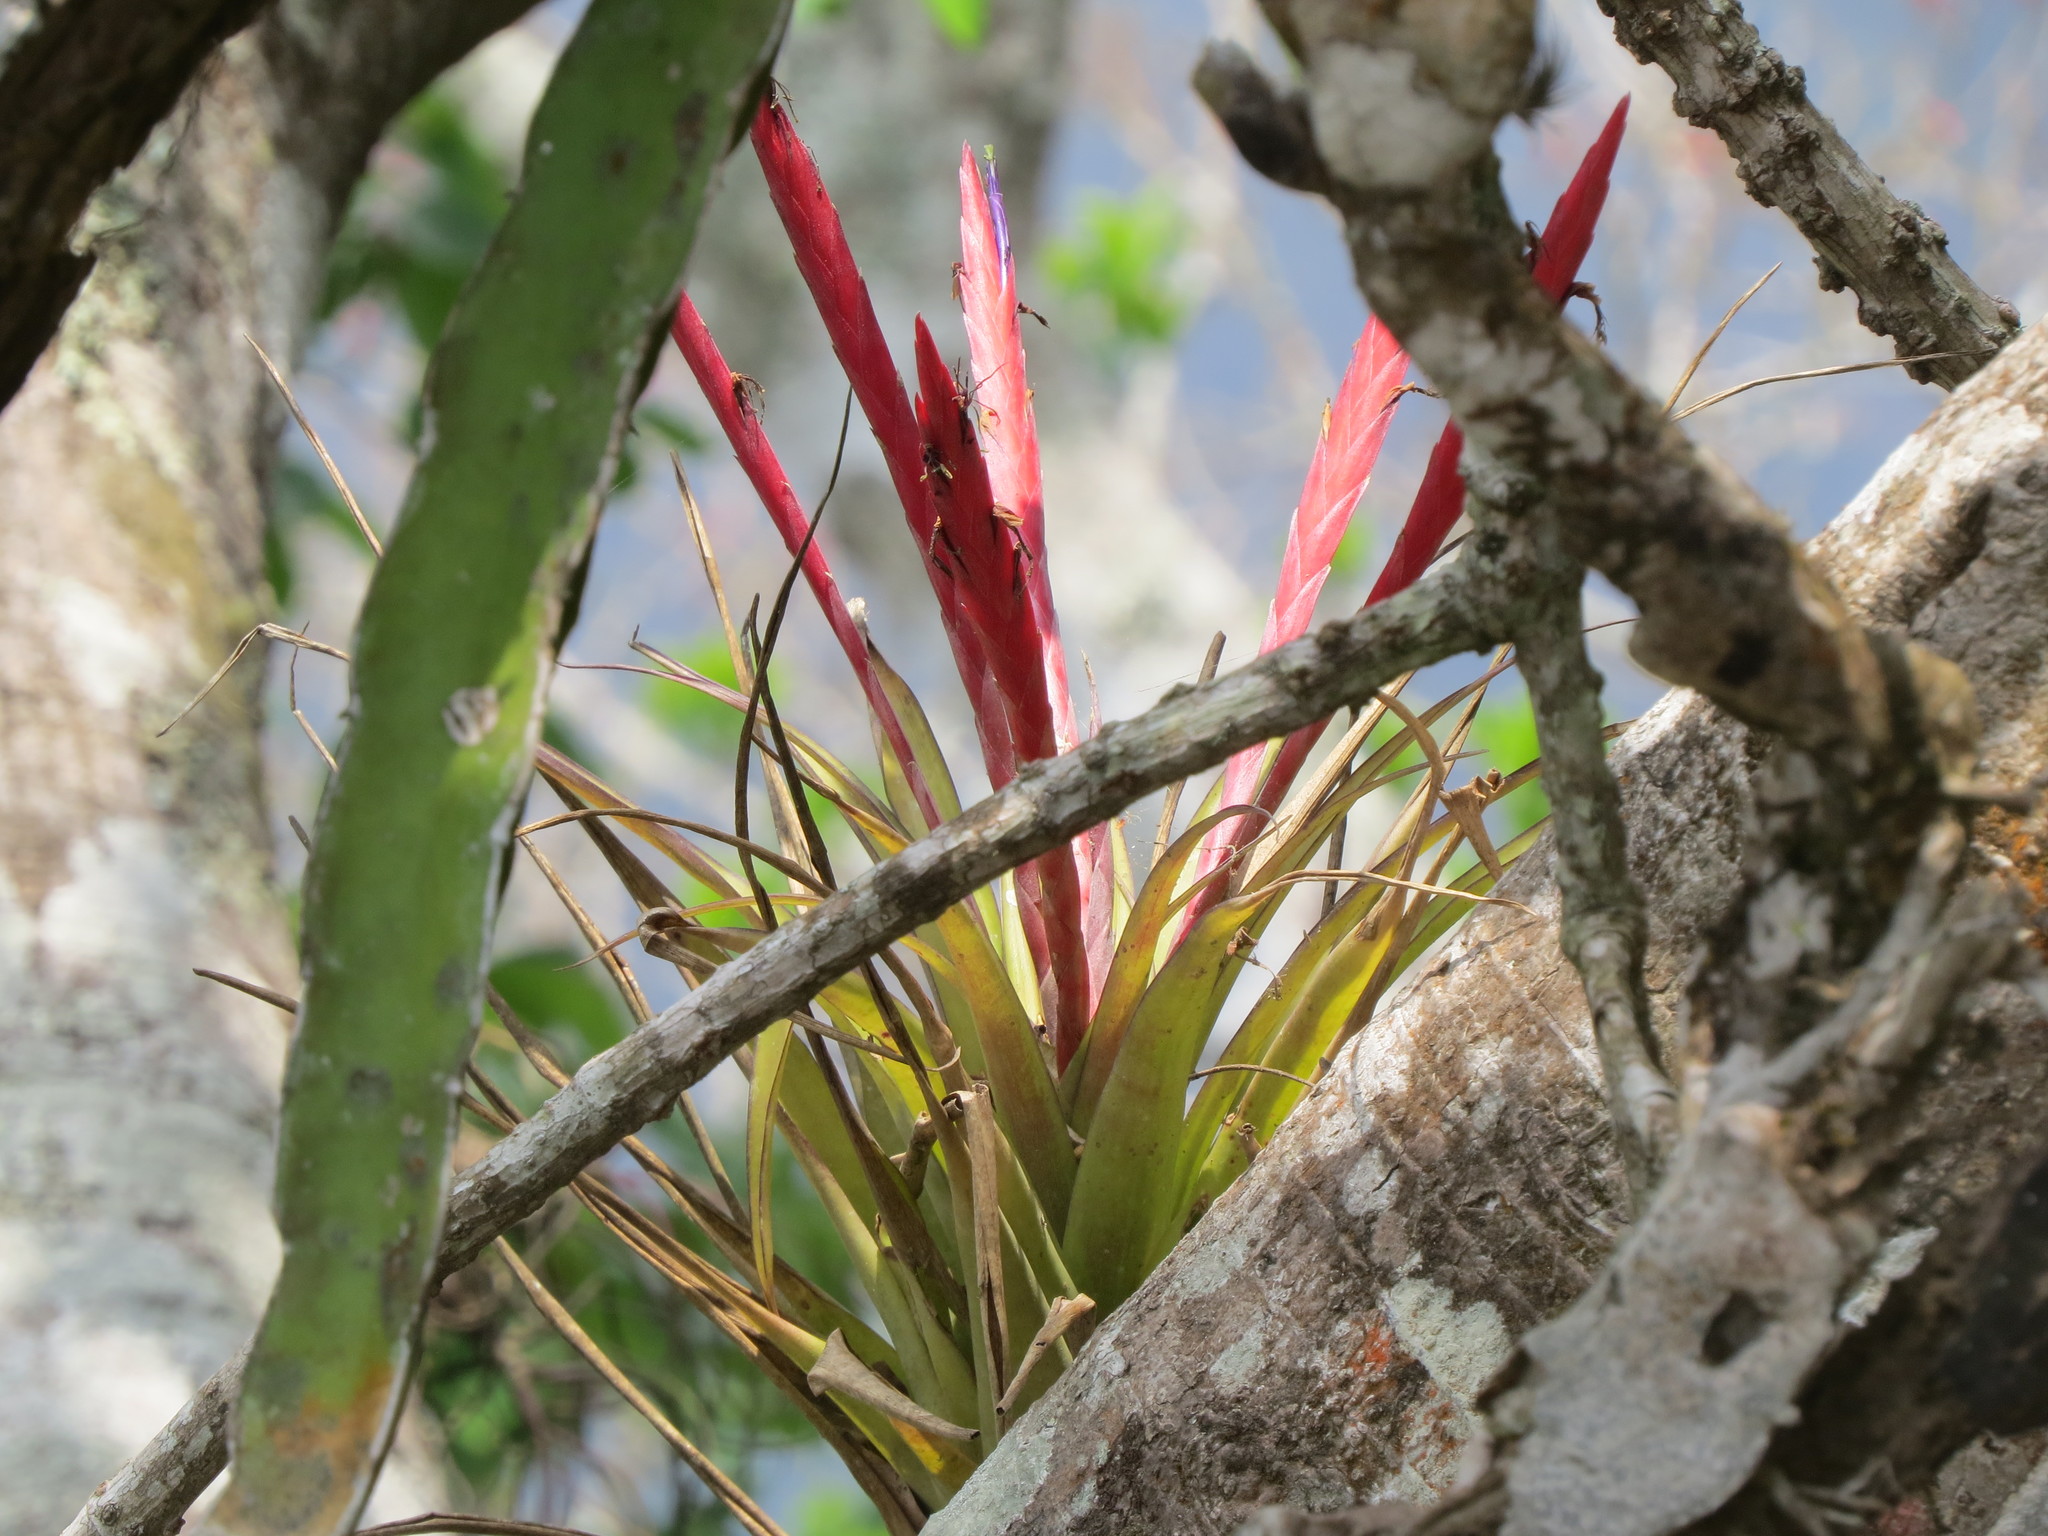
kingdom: Plantae
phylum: Tracheophyta
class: Liliopsida
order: Poales
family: Bromeliaceae
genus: Tillandsia
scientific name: Tillandsia flabellata
